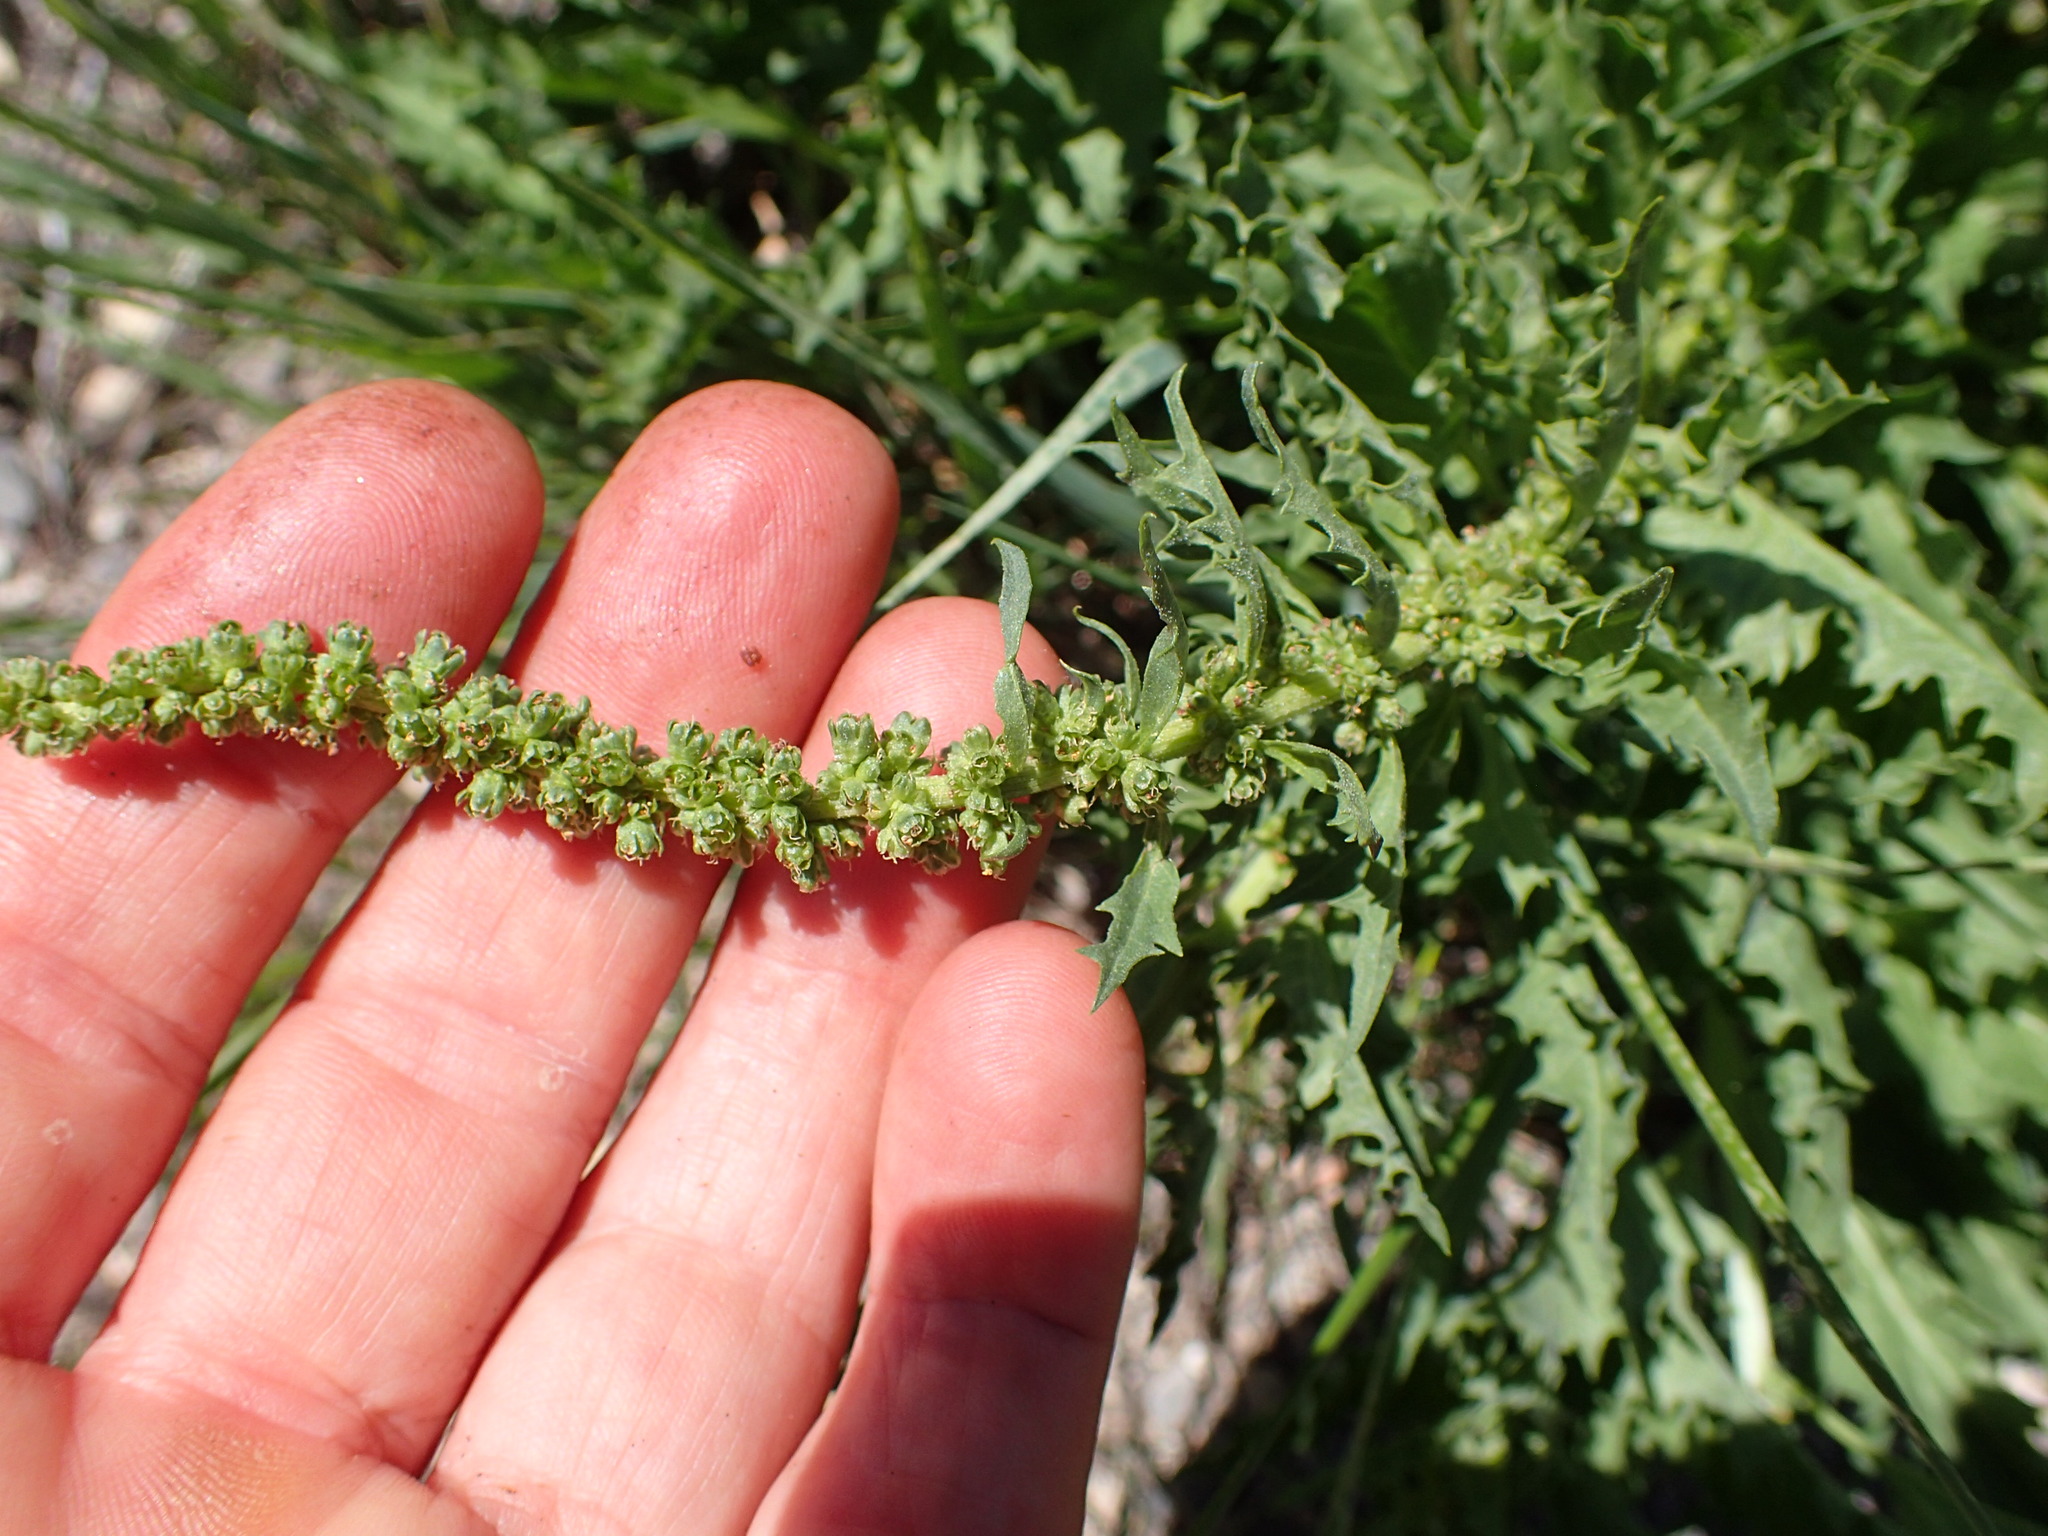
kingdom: Plantae
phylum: Tracheophyta
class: Magnoliopsida
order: Caryophyllales
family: Amaranthaceae
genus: Blitum
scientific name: Blitum californicum
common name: California goosefoot
